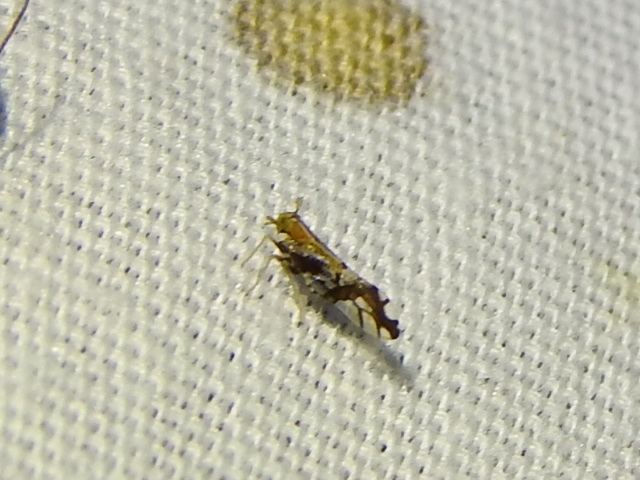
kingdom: Animalia
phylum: Arthropoda
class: Insecta
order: Hemiptera
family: Delphacidae
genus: Liburniella
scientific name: Liburniella ornata
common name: Ornate planthopper
